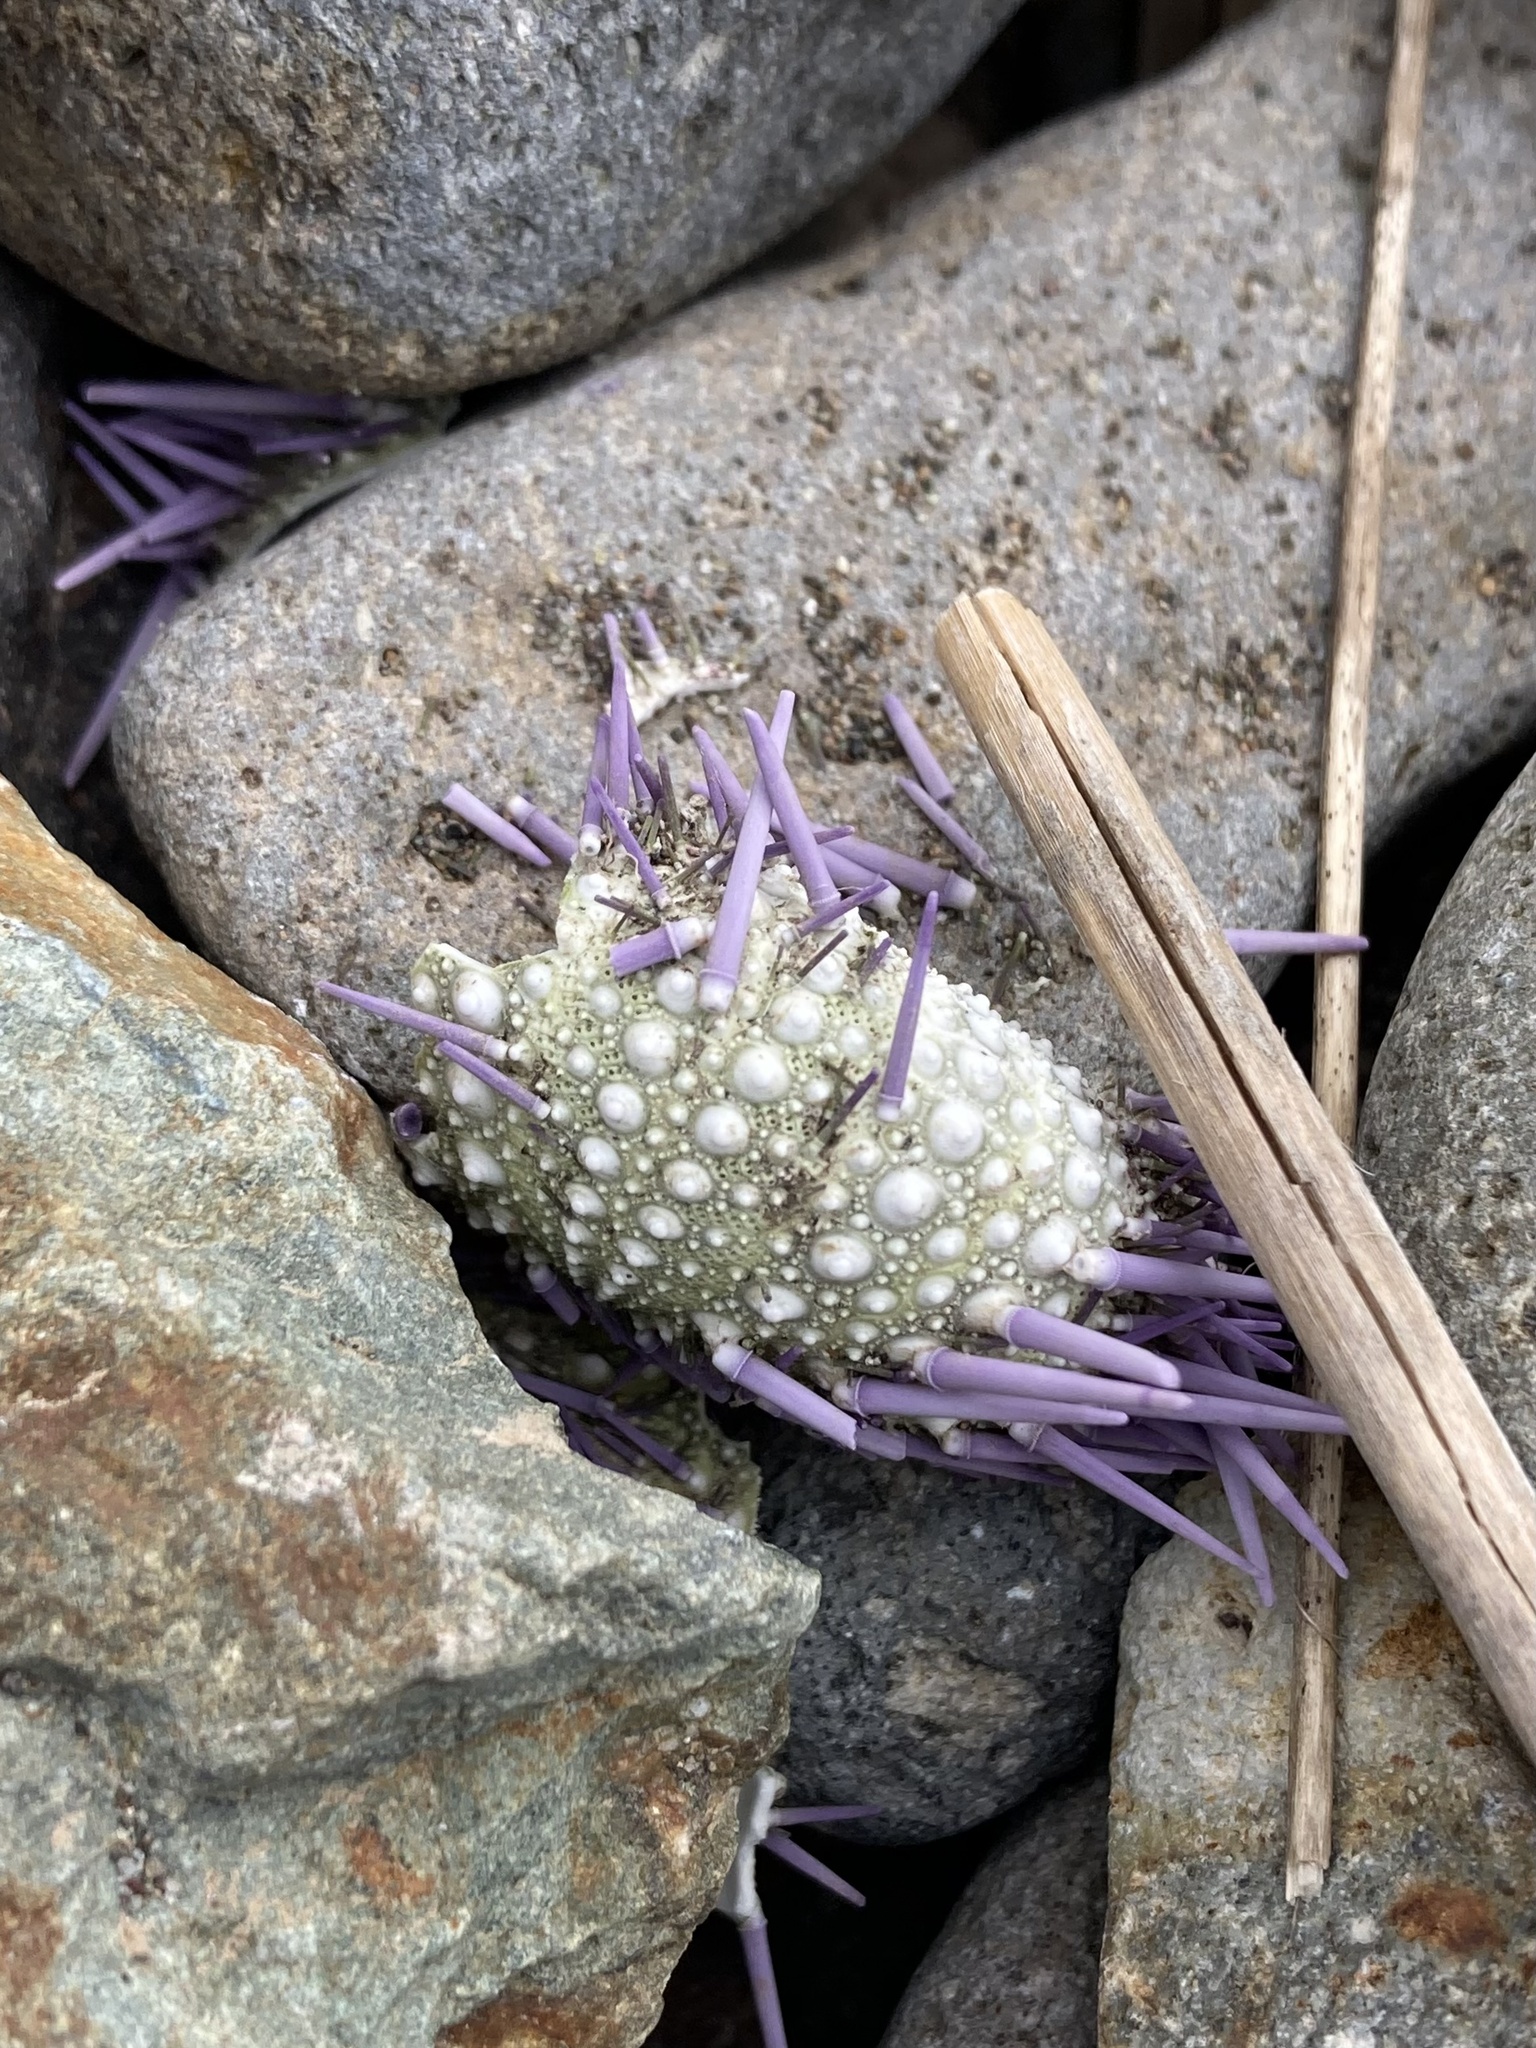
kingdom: Animalia
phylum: Echinodermata
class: Echinoidea
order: Camarodonta
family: Strongylocentrotidae
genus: Strongylocentrotus
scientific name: Strongylocentrotus purpuratus
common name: Purple sea urchin
